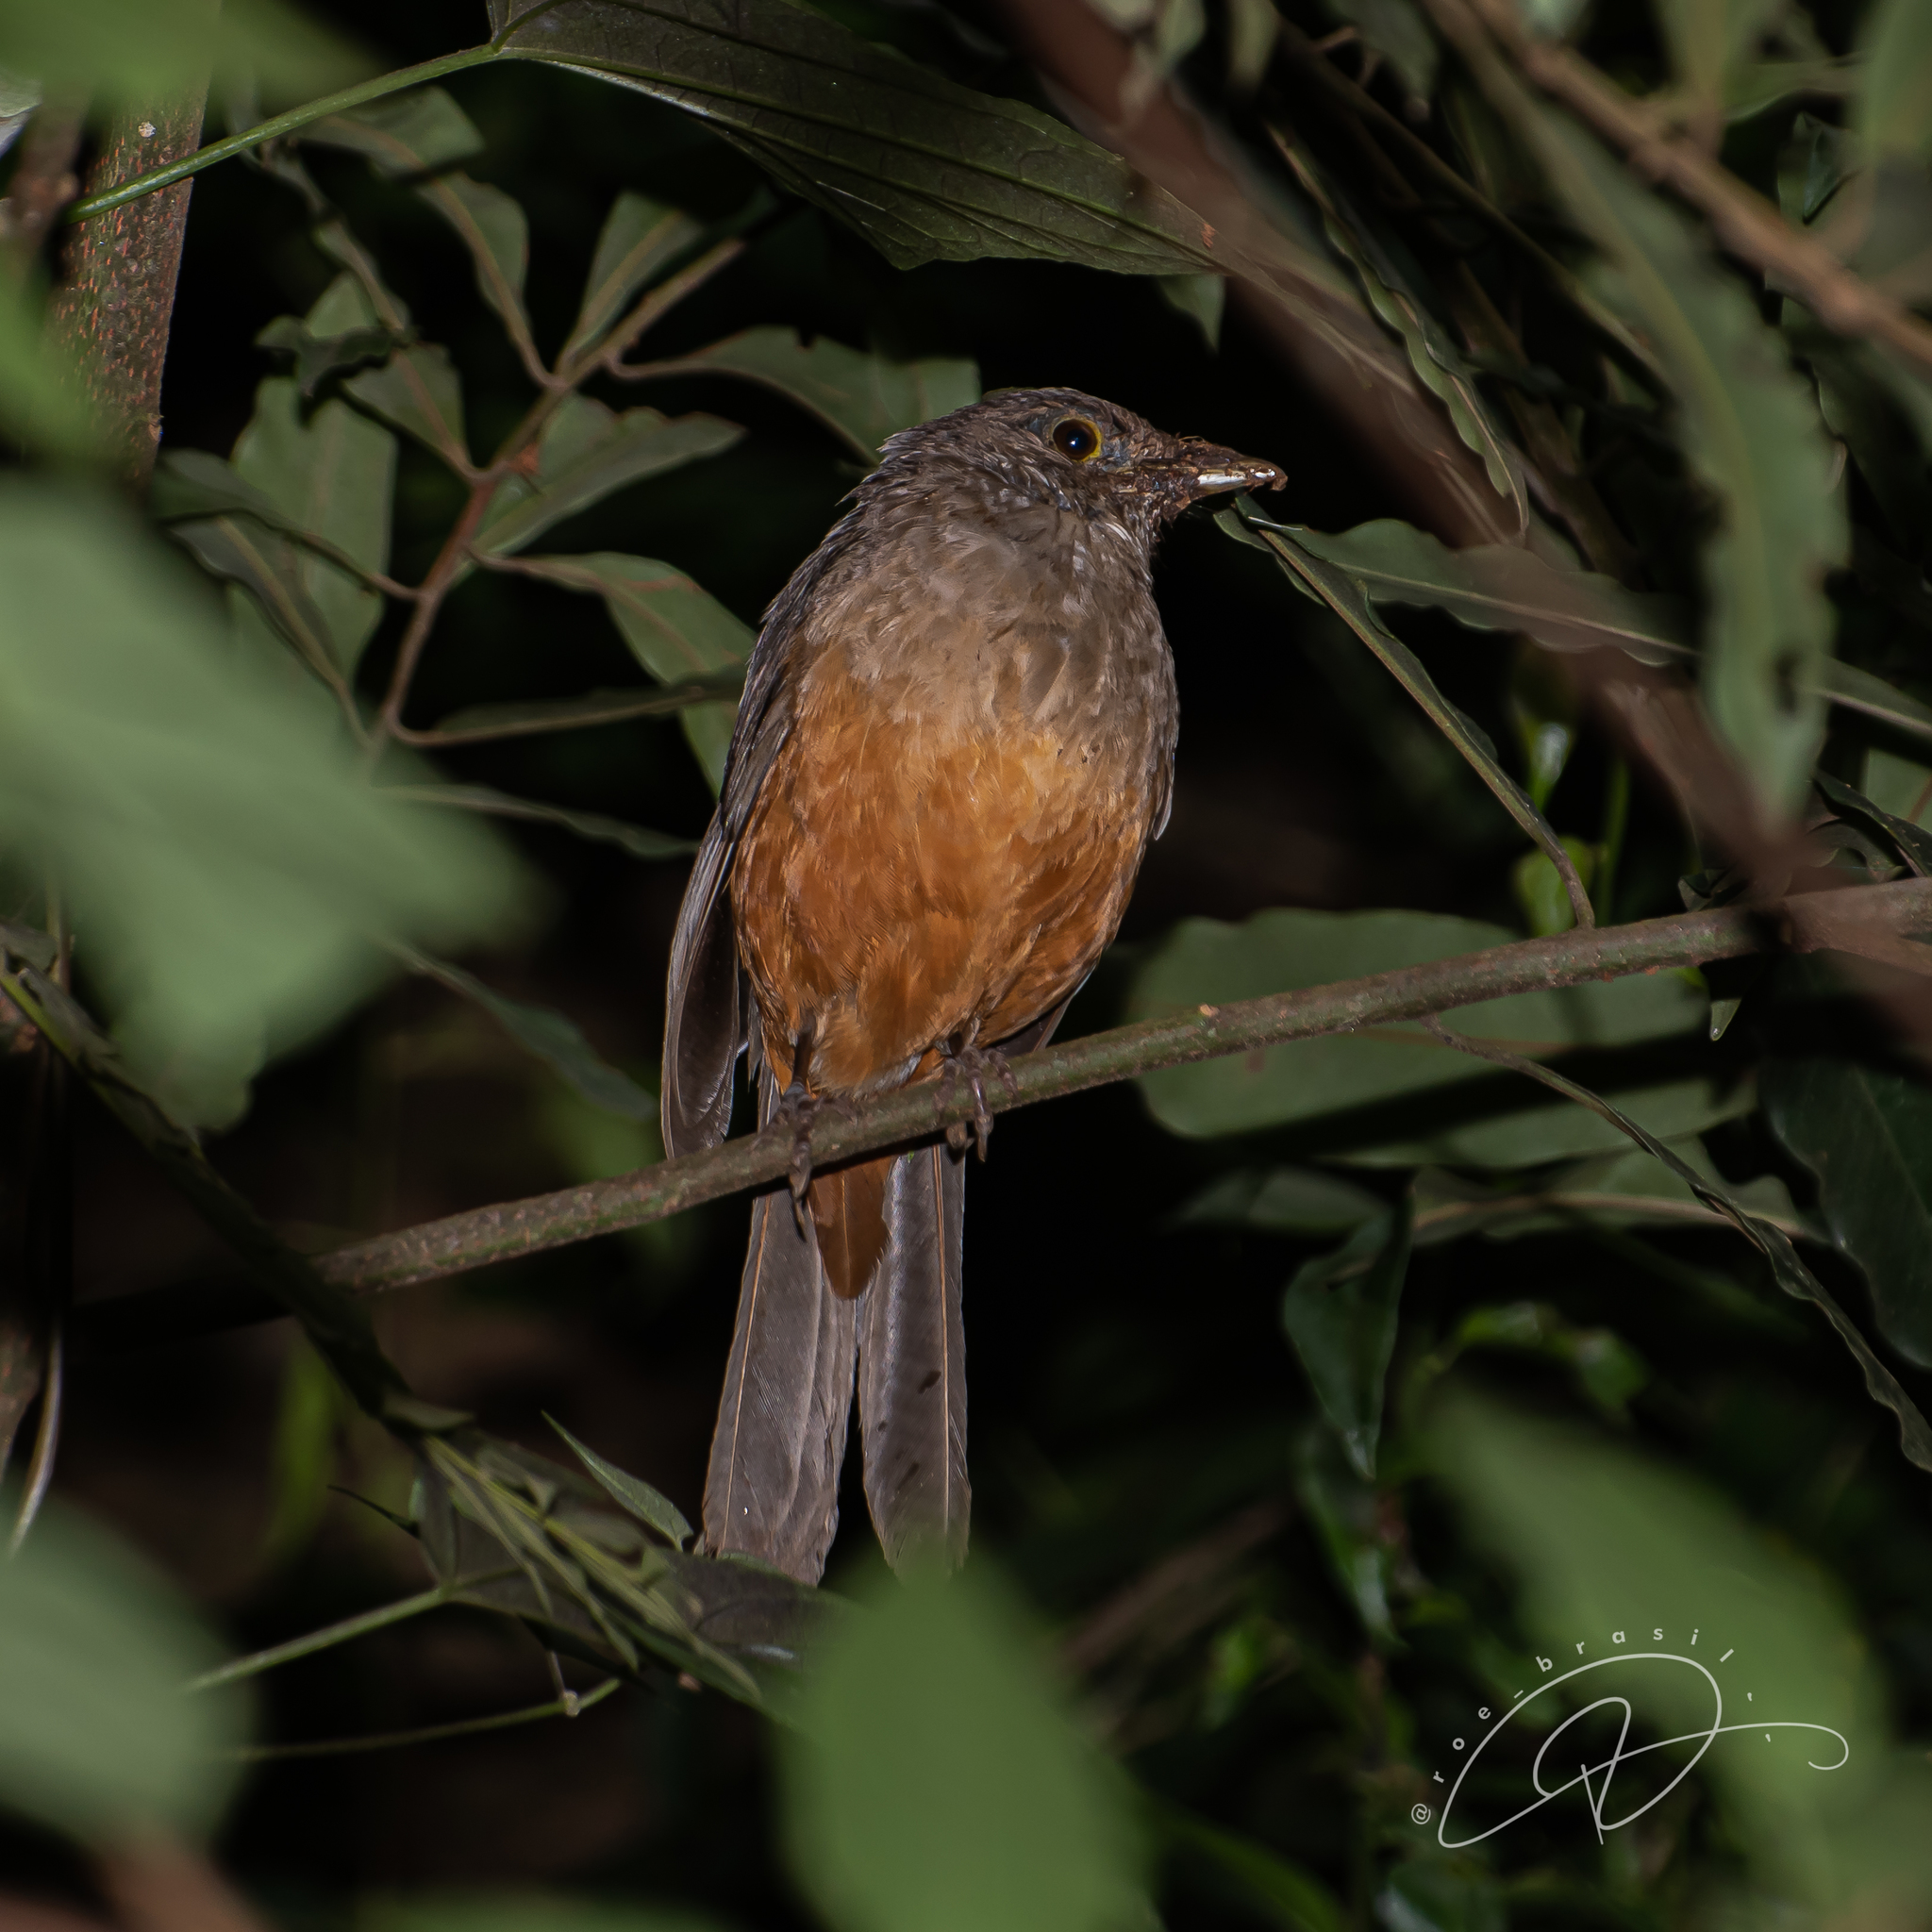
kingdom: Animalia
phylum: Chordata
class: Aves
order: Passeriformes
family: Turdidae
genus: Turdus
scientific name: Turdus rufiventris
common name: Rufous-bellied thrush
